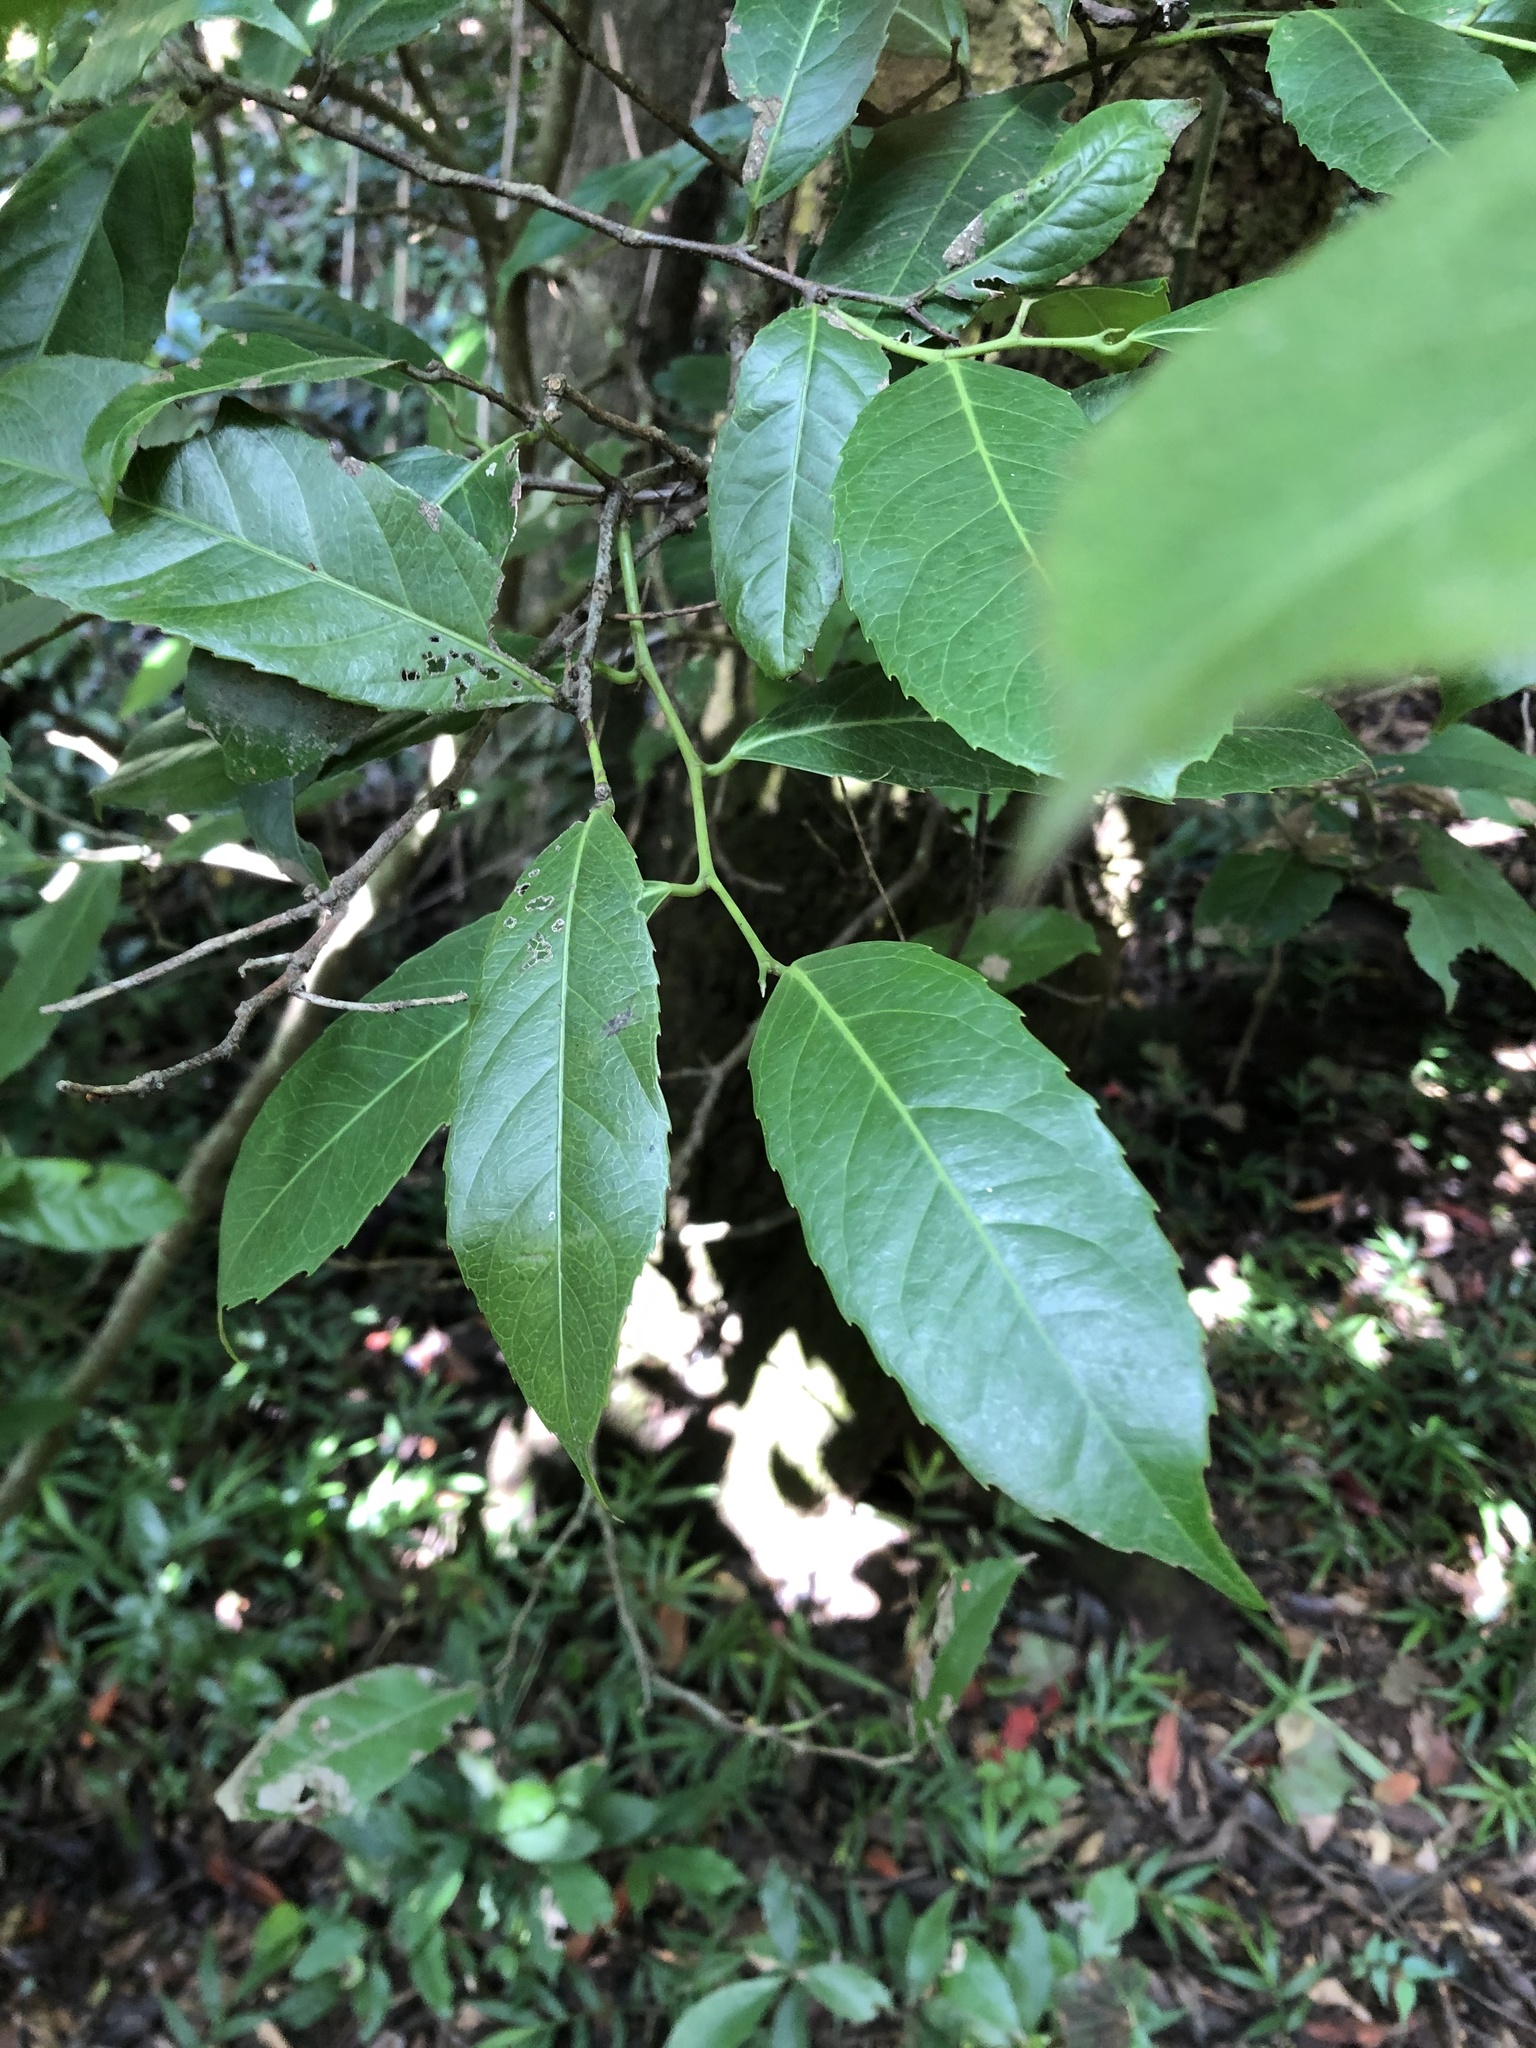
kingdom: Plantae
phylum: Tracheophyta
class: Magnoliopsida
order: Malpighiales
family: Achariaceae
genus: Rawsonia
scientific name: Rawsonia lucida
